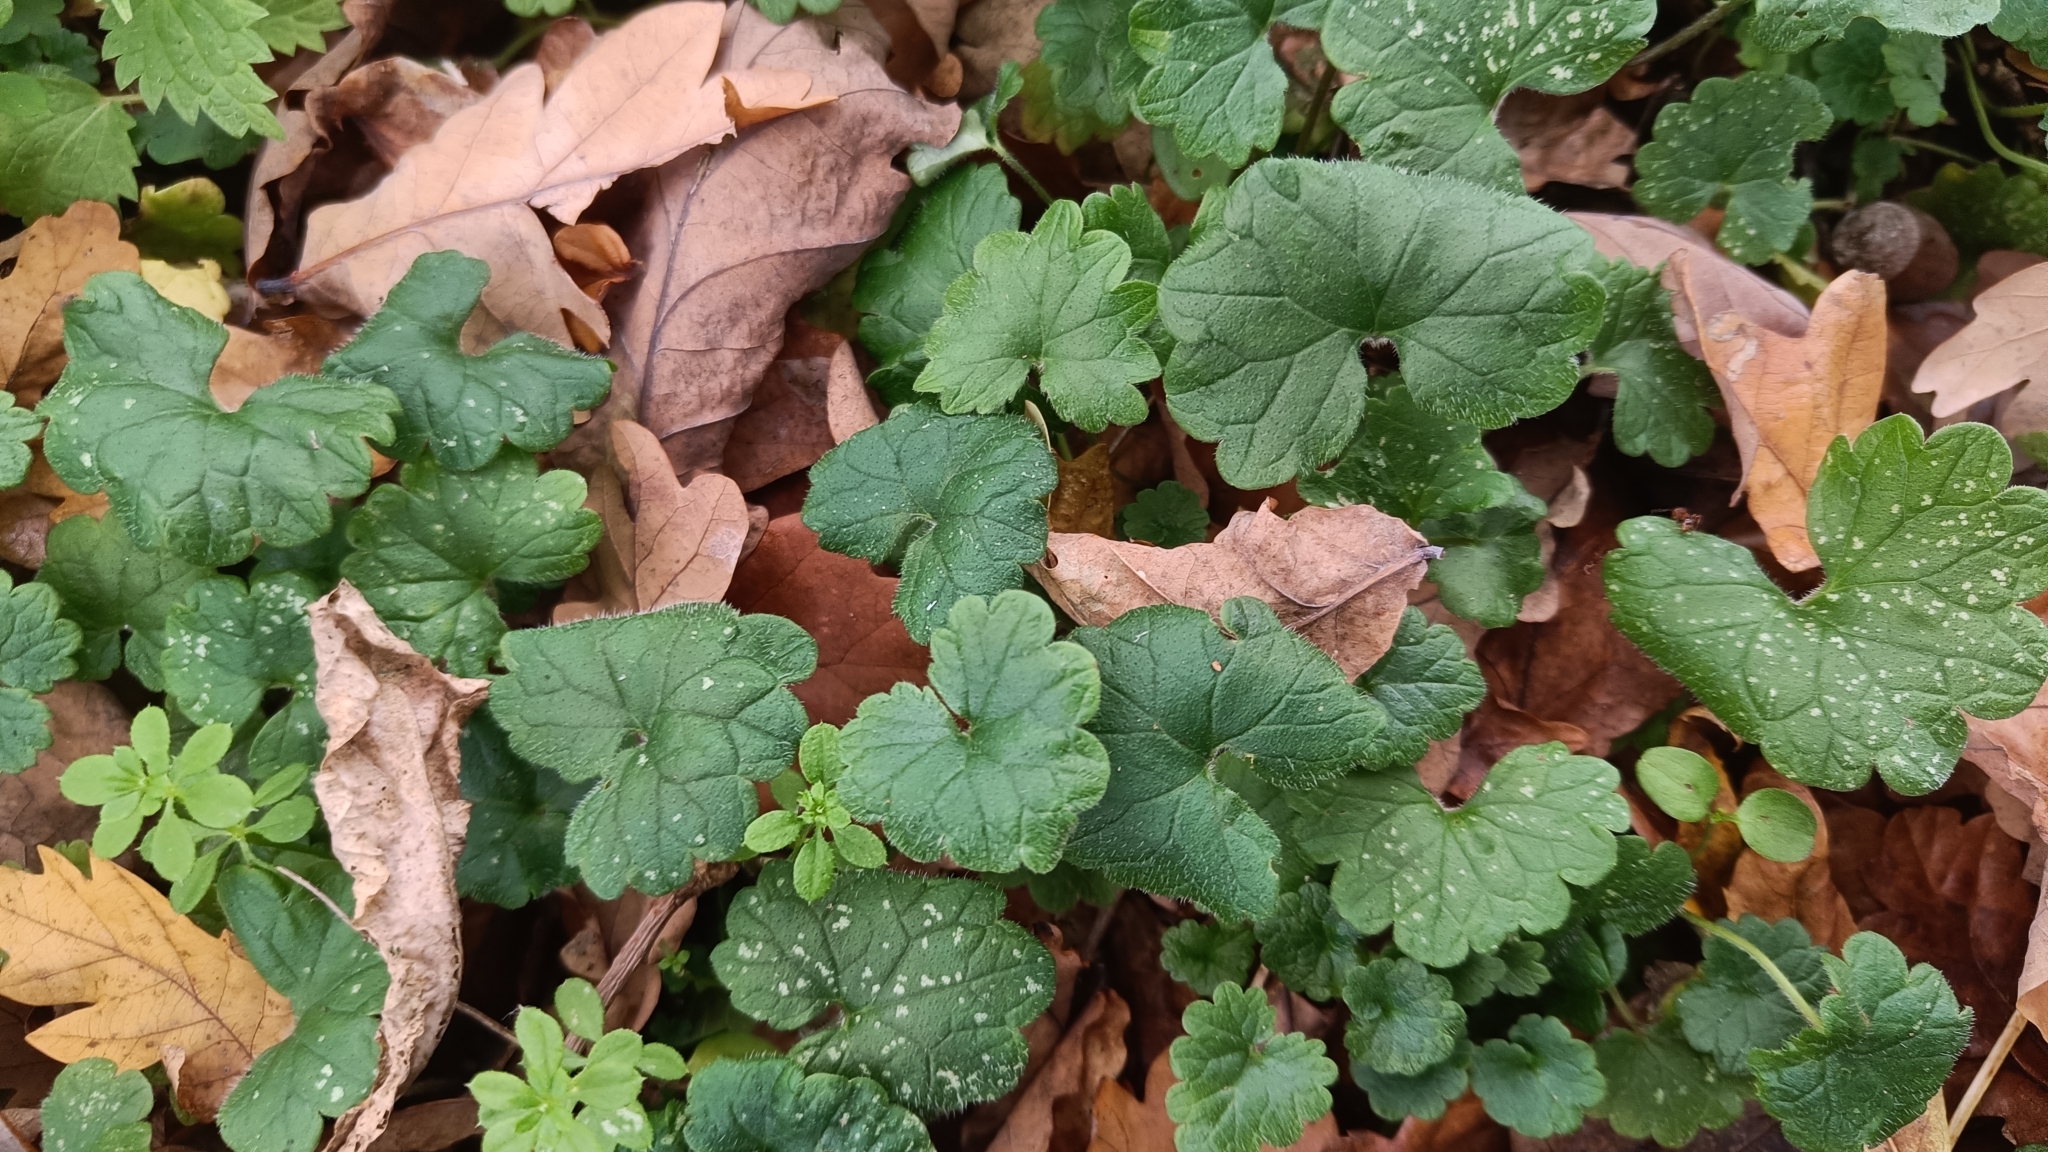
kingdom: Plantae
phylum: Tracheophyta
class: Magnoliopsida
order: Lamiales
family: Lamiaceae
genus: Glechoma
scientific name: Glechoma hederacea
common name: Ground ivy
